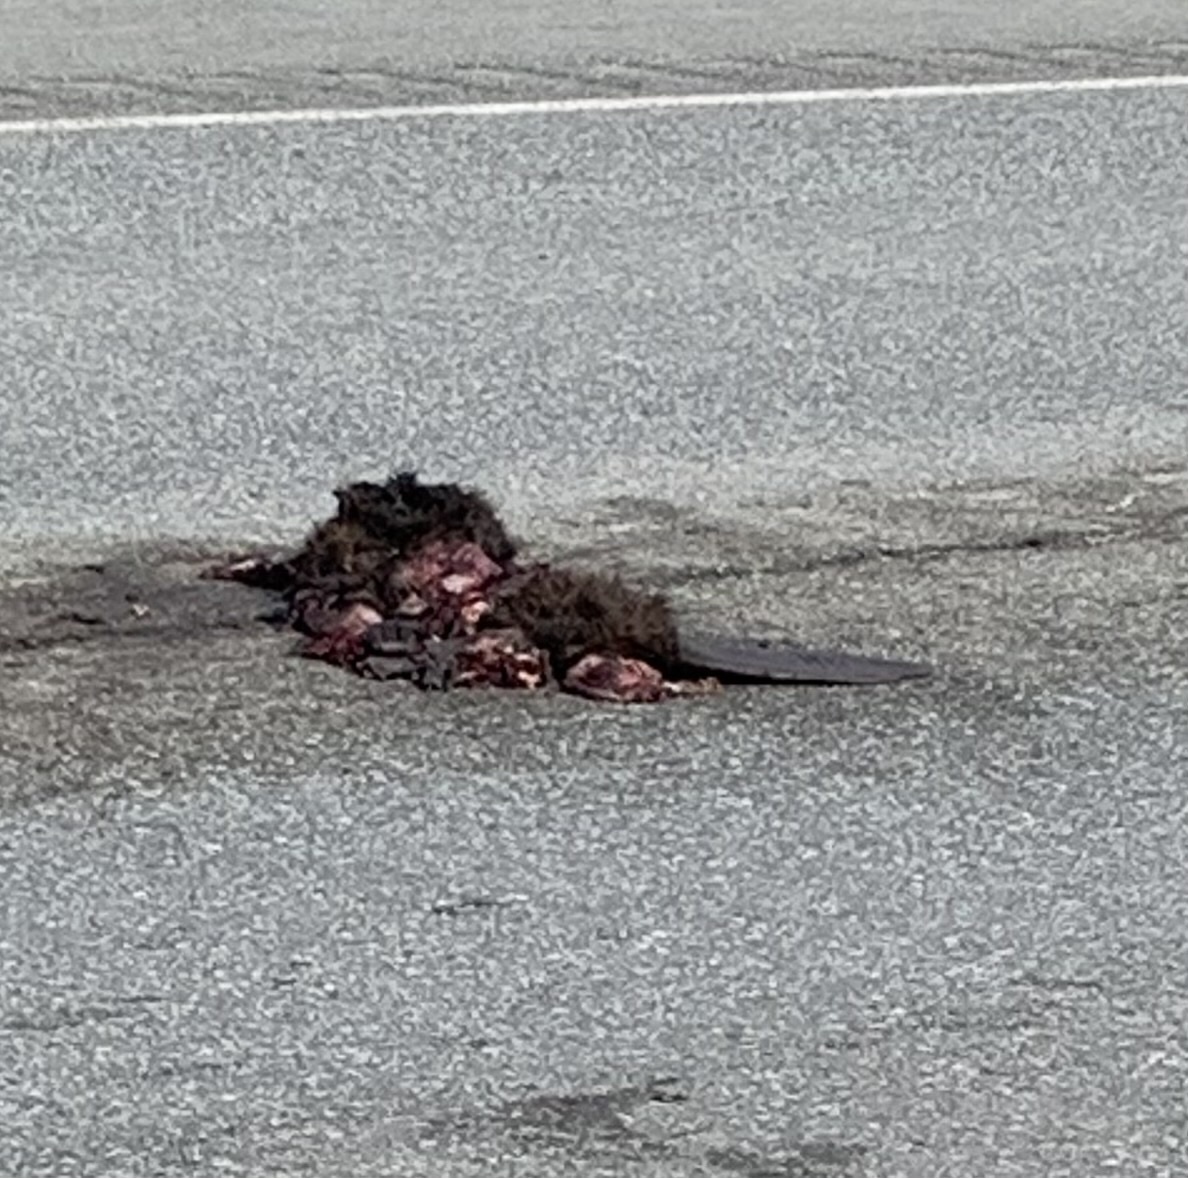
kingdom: Animalia
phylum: Chordata
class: Mammalia
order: Rodentia
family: Castoridae
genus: Castor
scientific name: Castor canadensis
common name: American beaver
